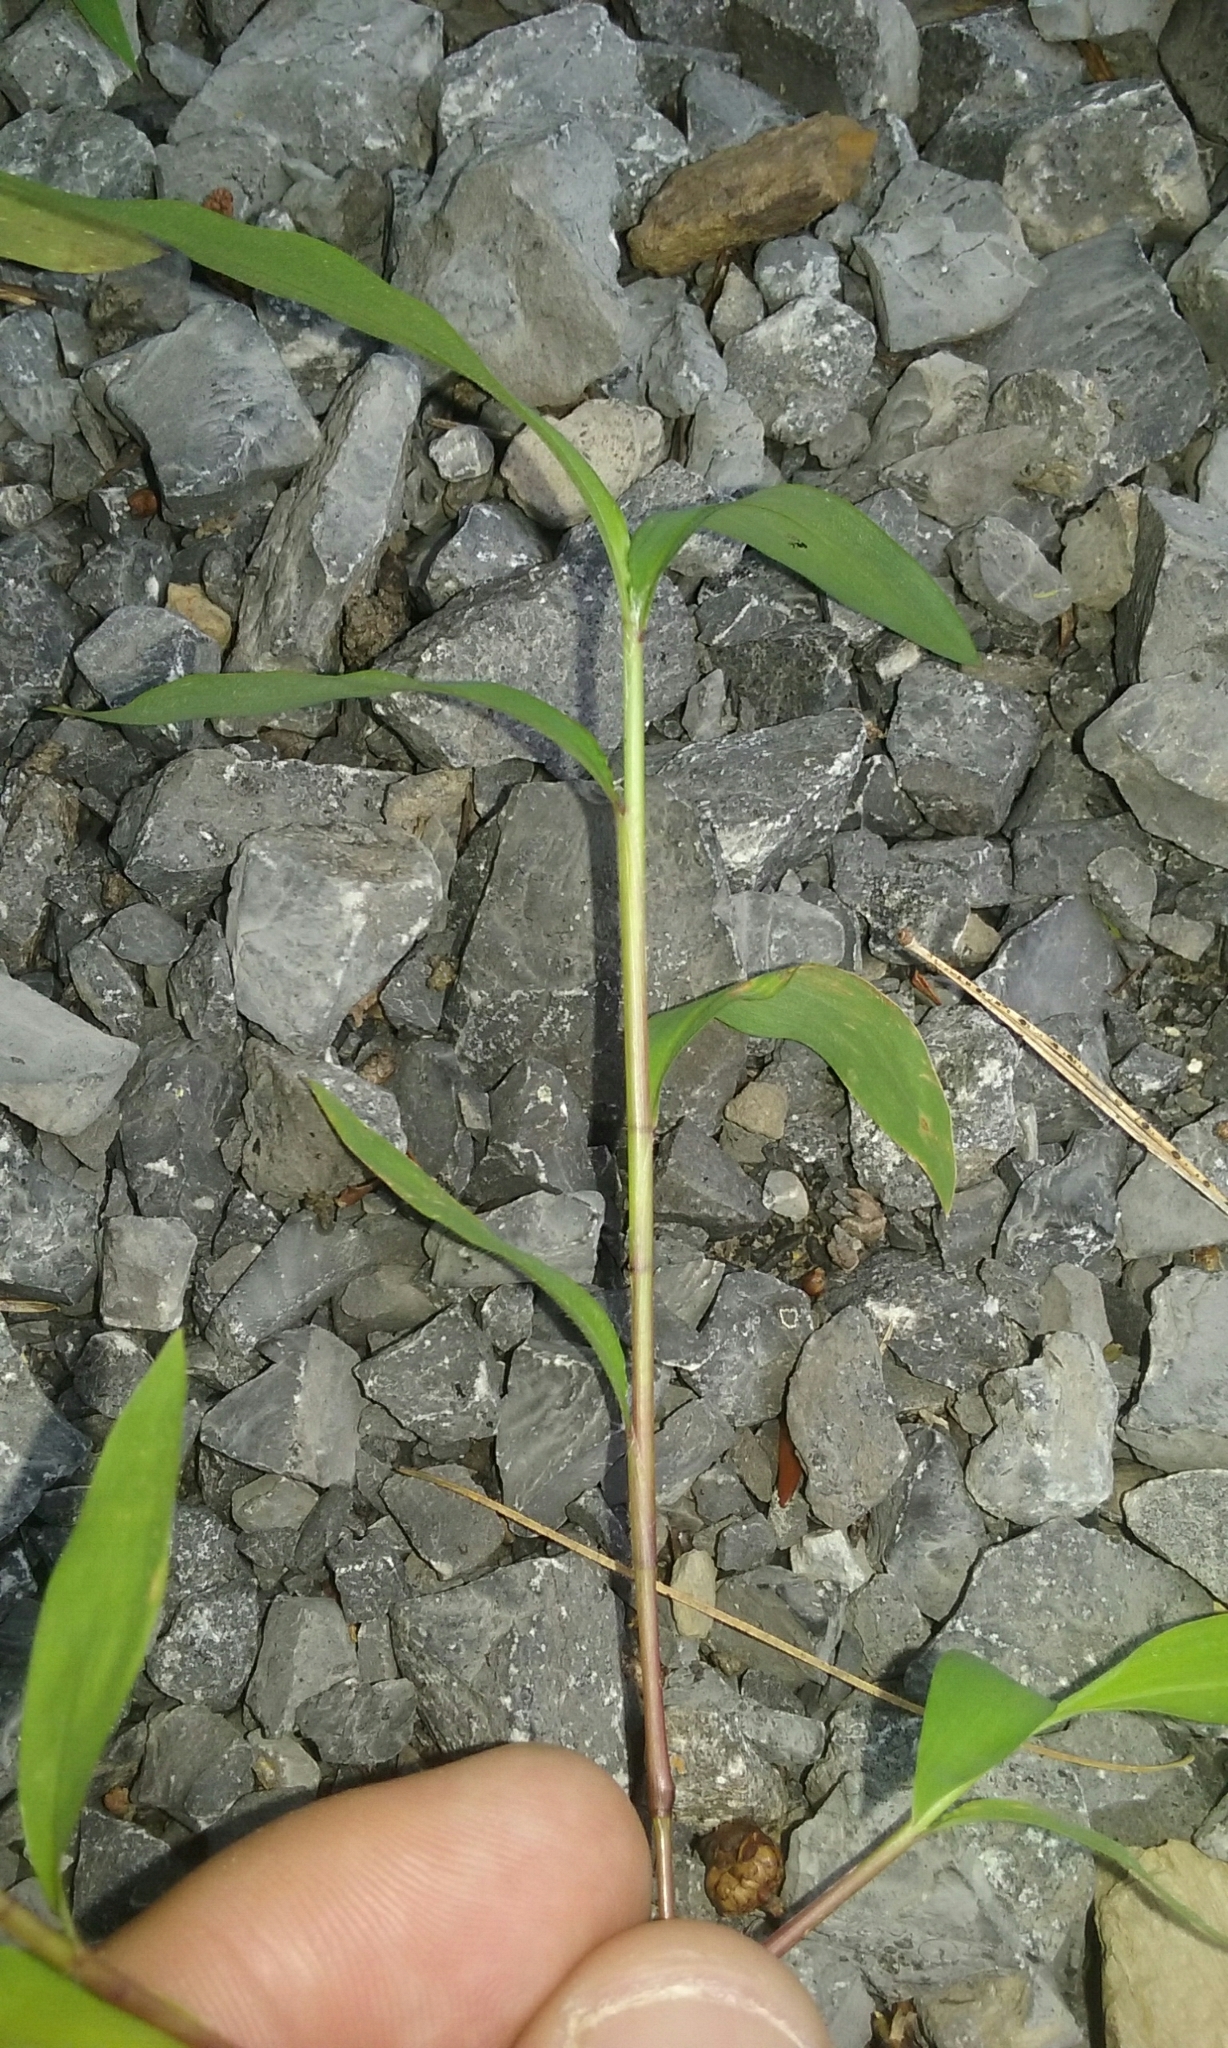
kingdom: Plantae
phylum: Tracheophyta
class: Liliopsida
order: Poales
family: Poaceae
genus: Microstegium
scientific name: Microstegium vimineum
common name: Japanese stiltgrass
